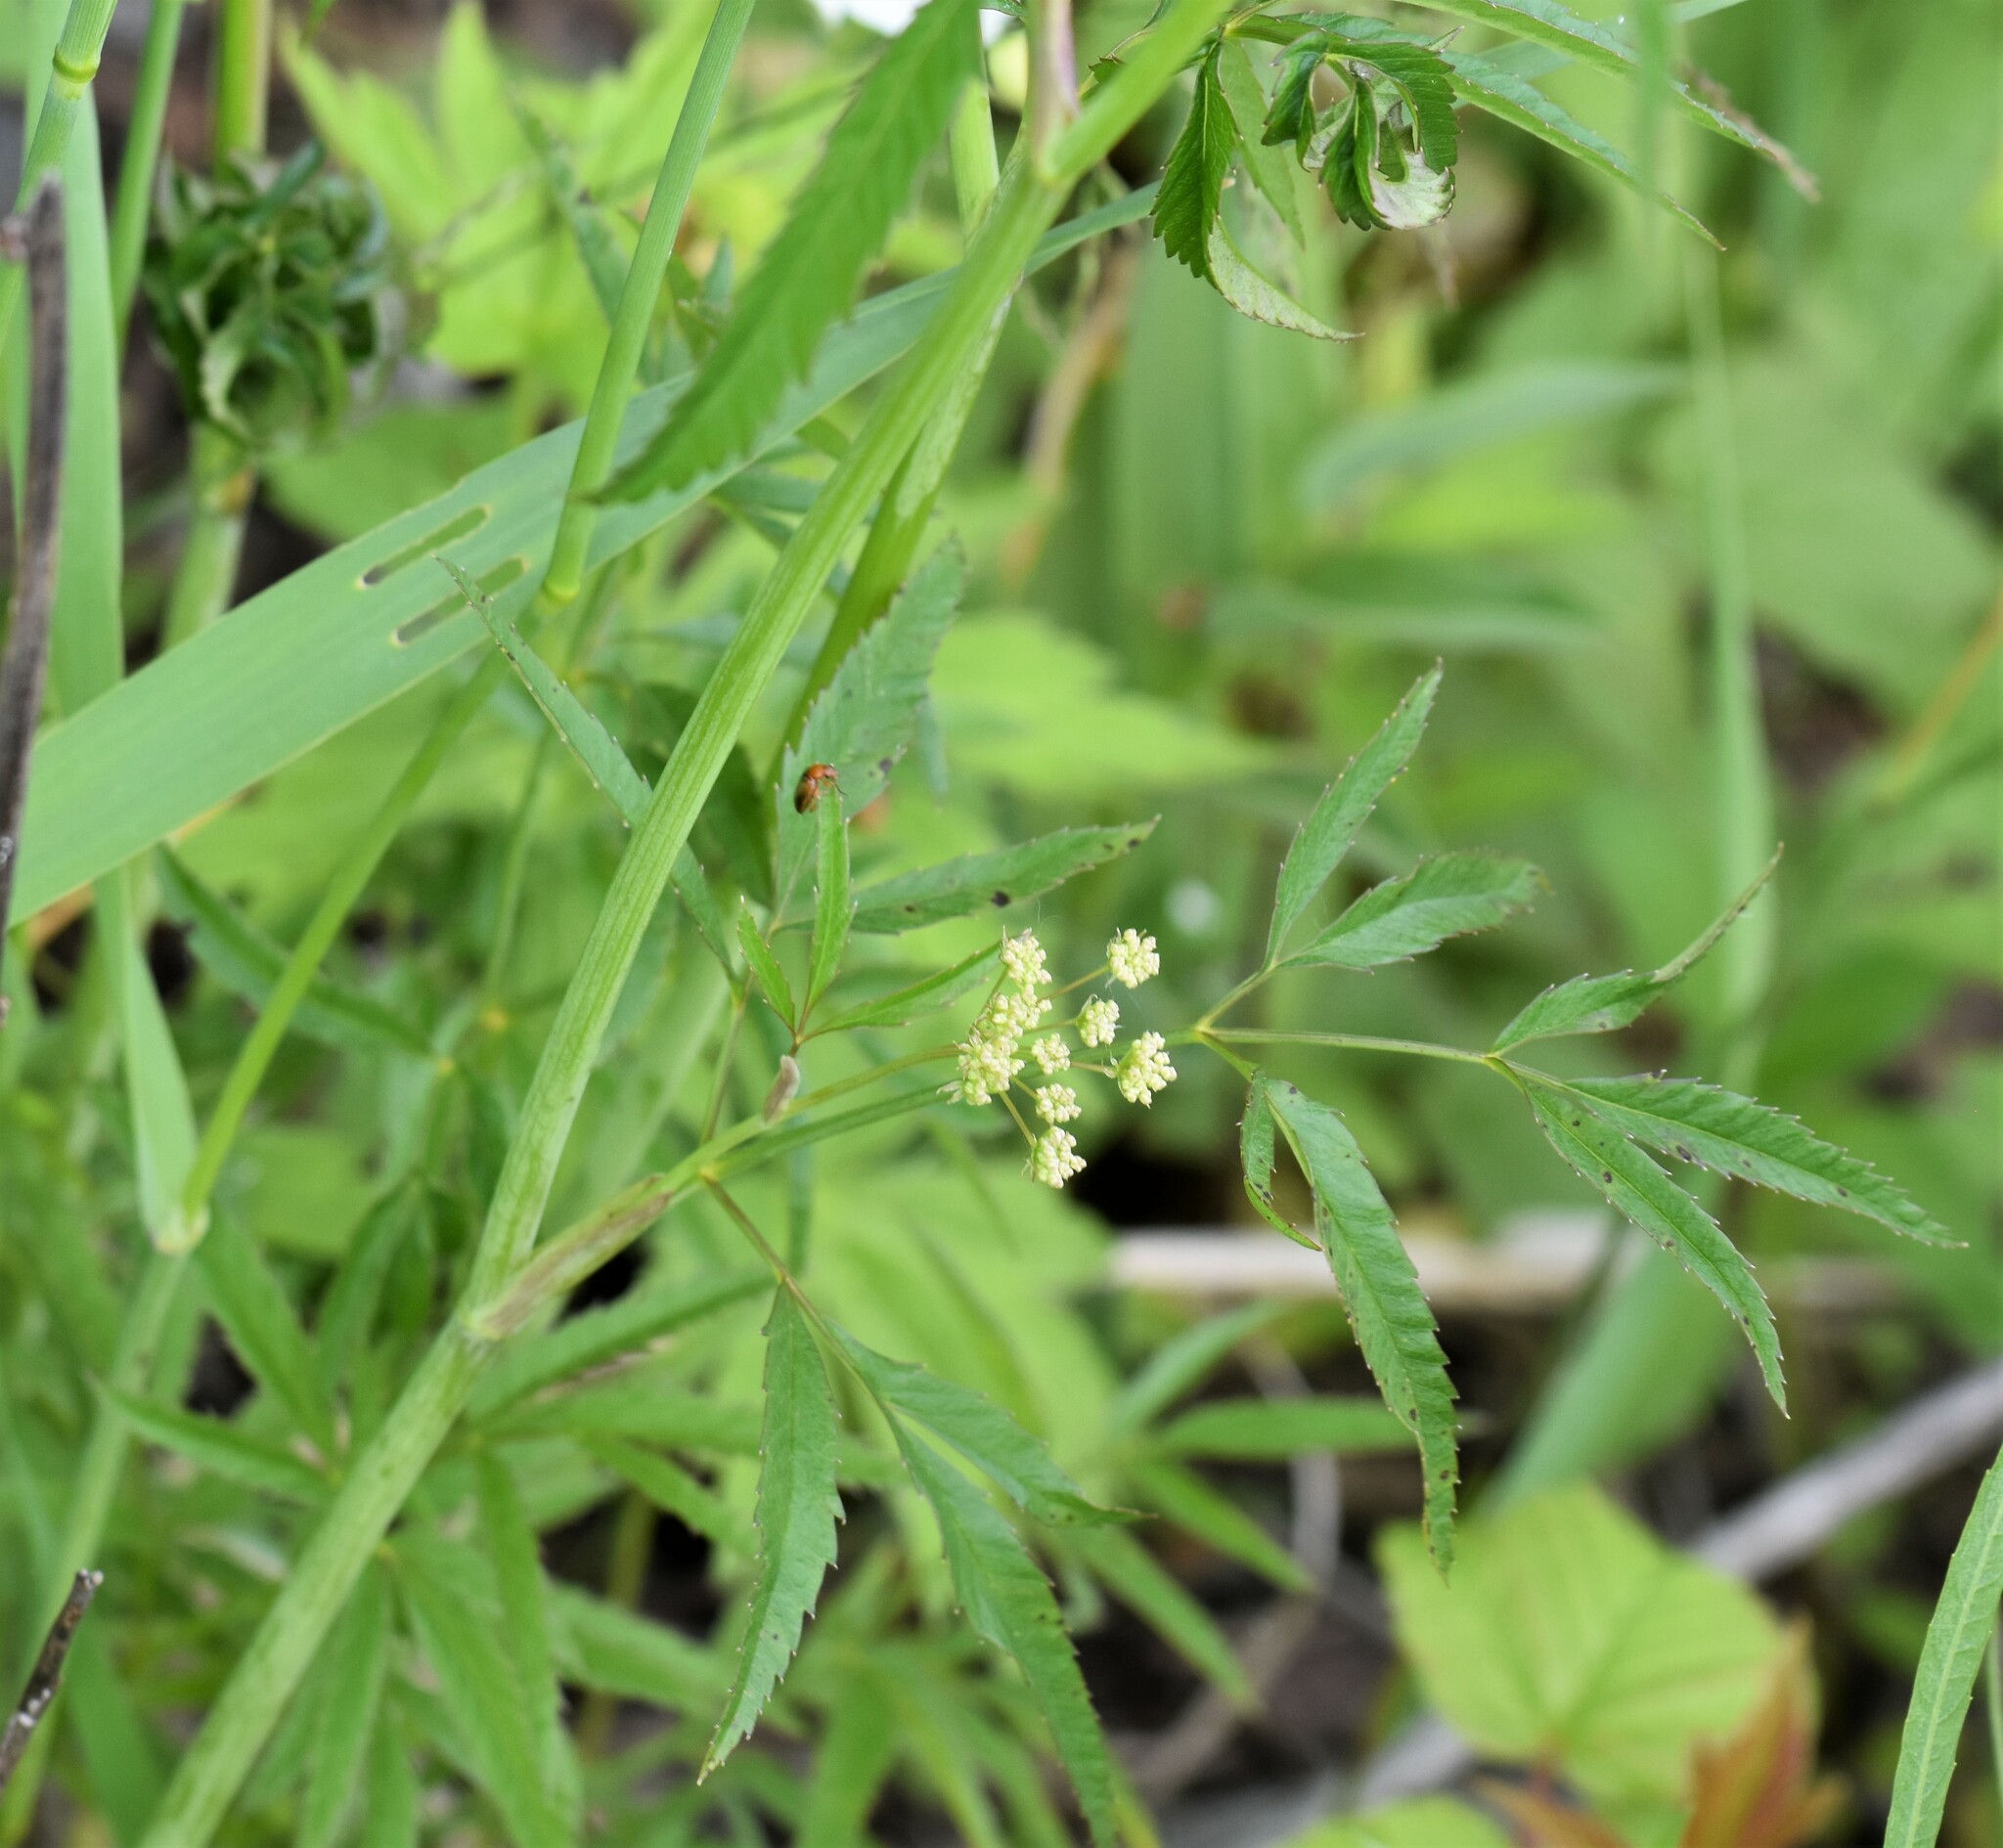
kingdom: Plantae
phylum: Tracheophyta
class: Magnoliopsida
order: Apiales
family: Apiaceae
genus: Cicuta
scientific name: Cicuta maculata
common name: Spotted cowbane
